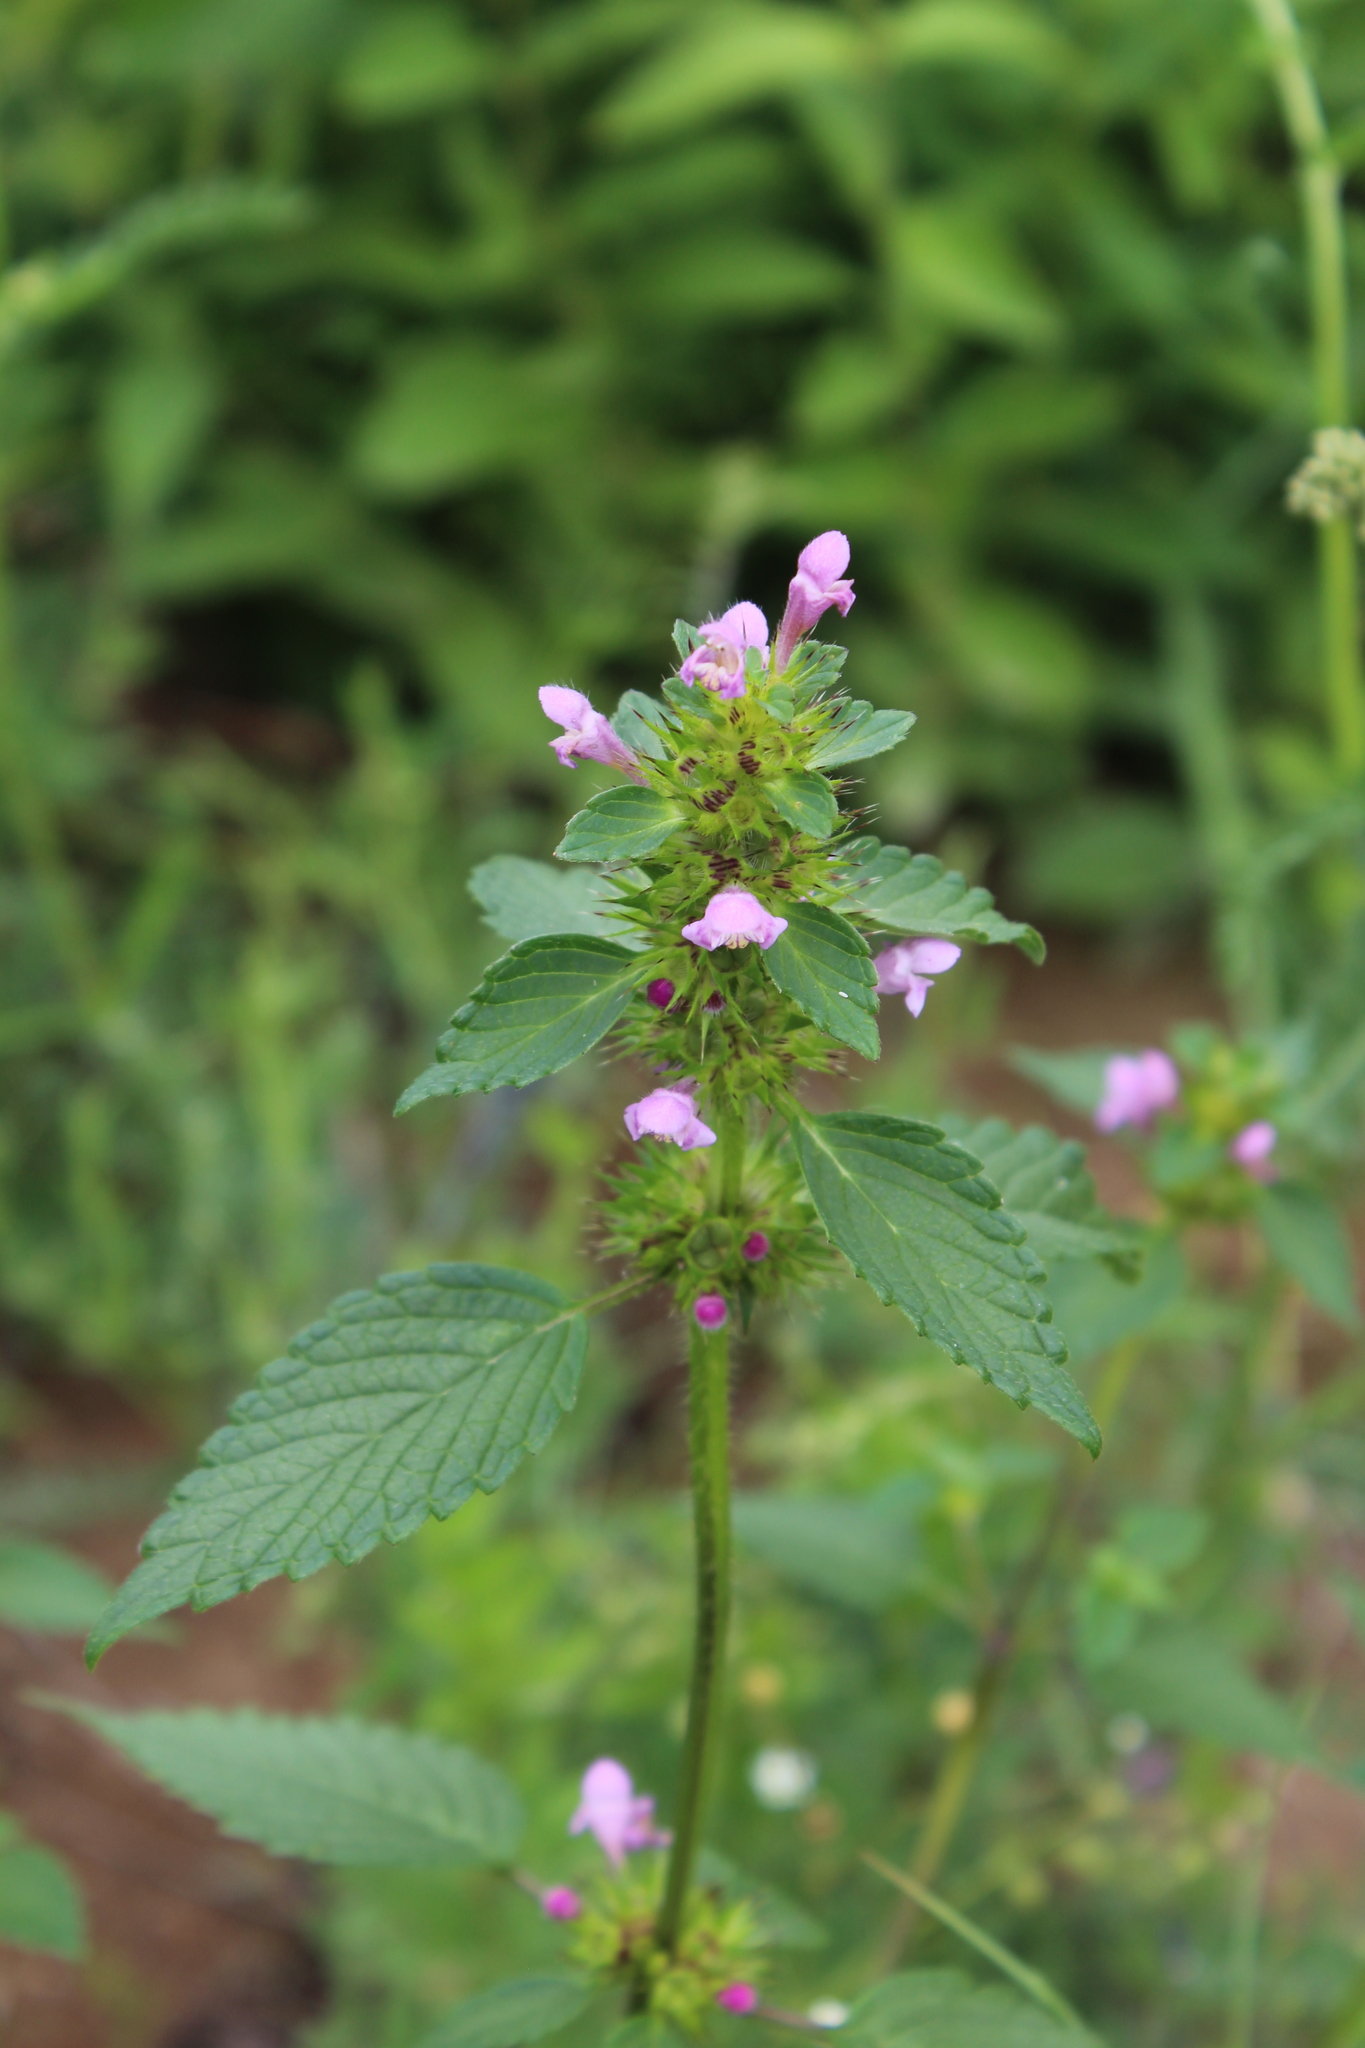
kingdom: Plantae
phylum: Tracheophyta
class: Magnoliopsida
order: Lamiales
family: Lamiaceae
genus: Galeopsis
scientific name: Galeopsis bifida
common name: Bifid hemp-nettle
